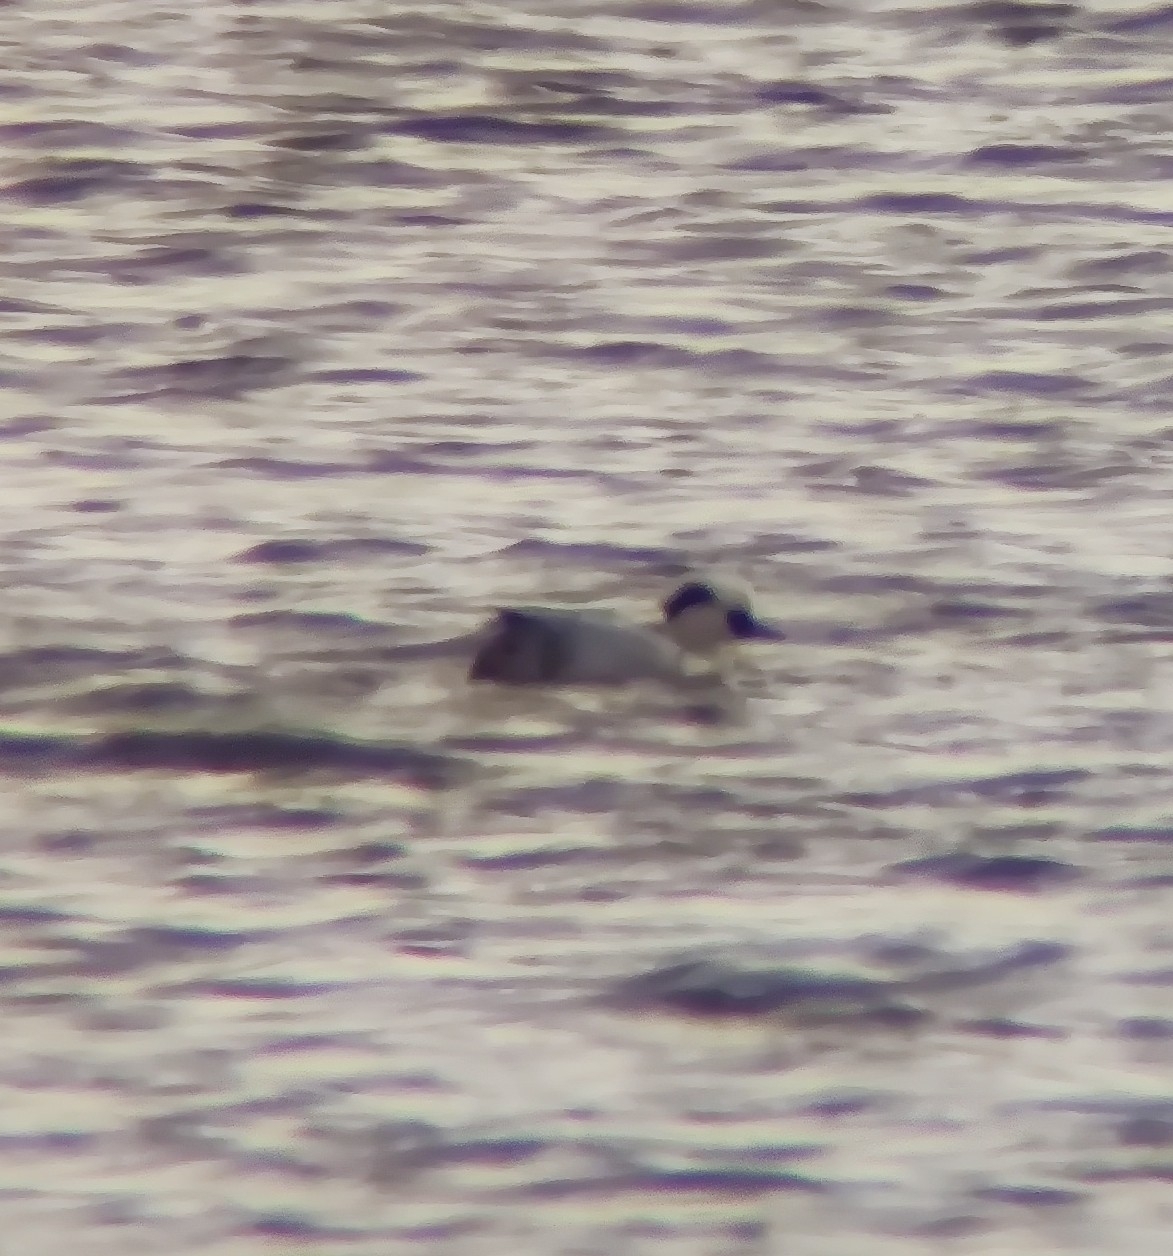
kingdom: Animalia
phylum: Chordata
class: Aves
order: Anseriformes
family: Anatidae
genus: Mergellus
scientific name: Mergellus albellus
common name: Smew
